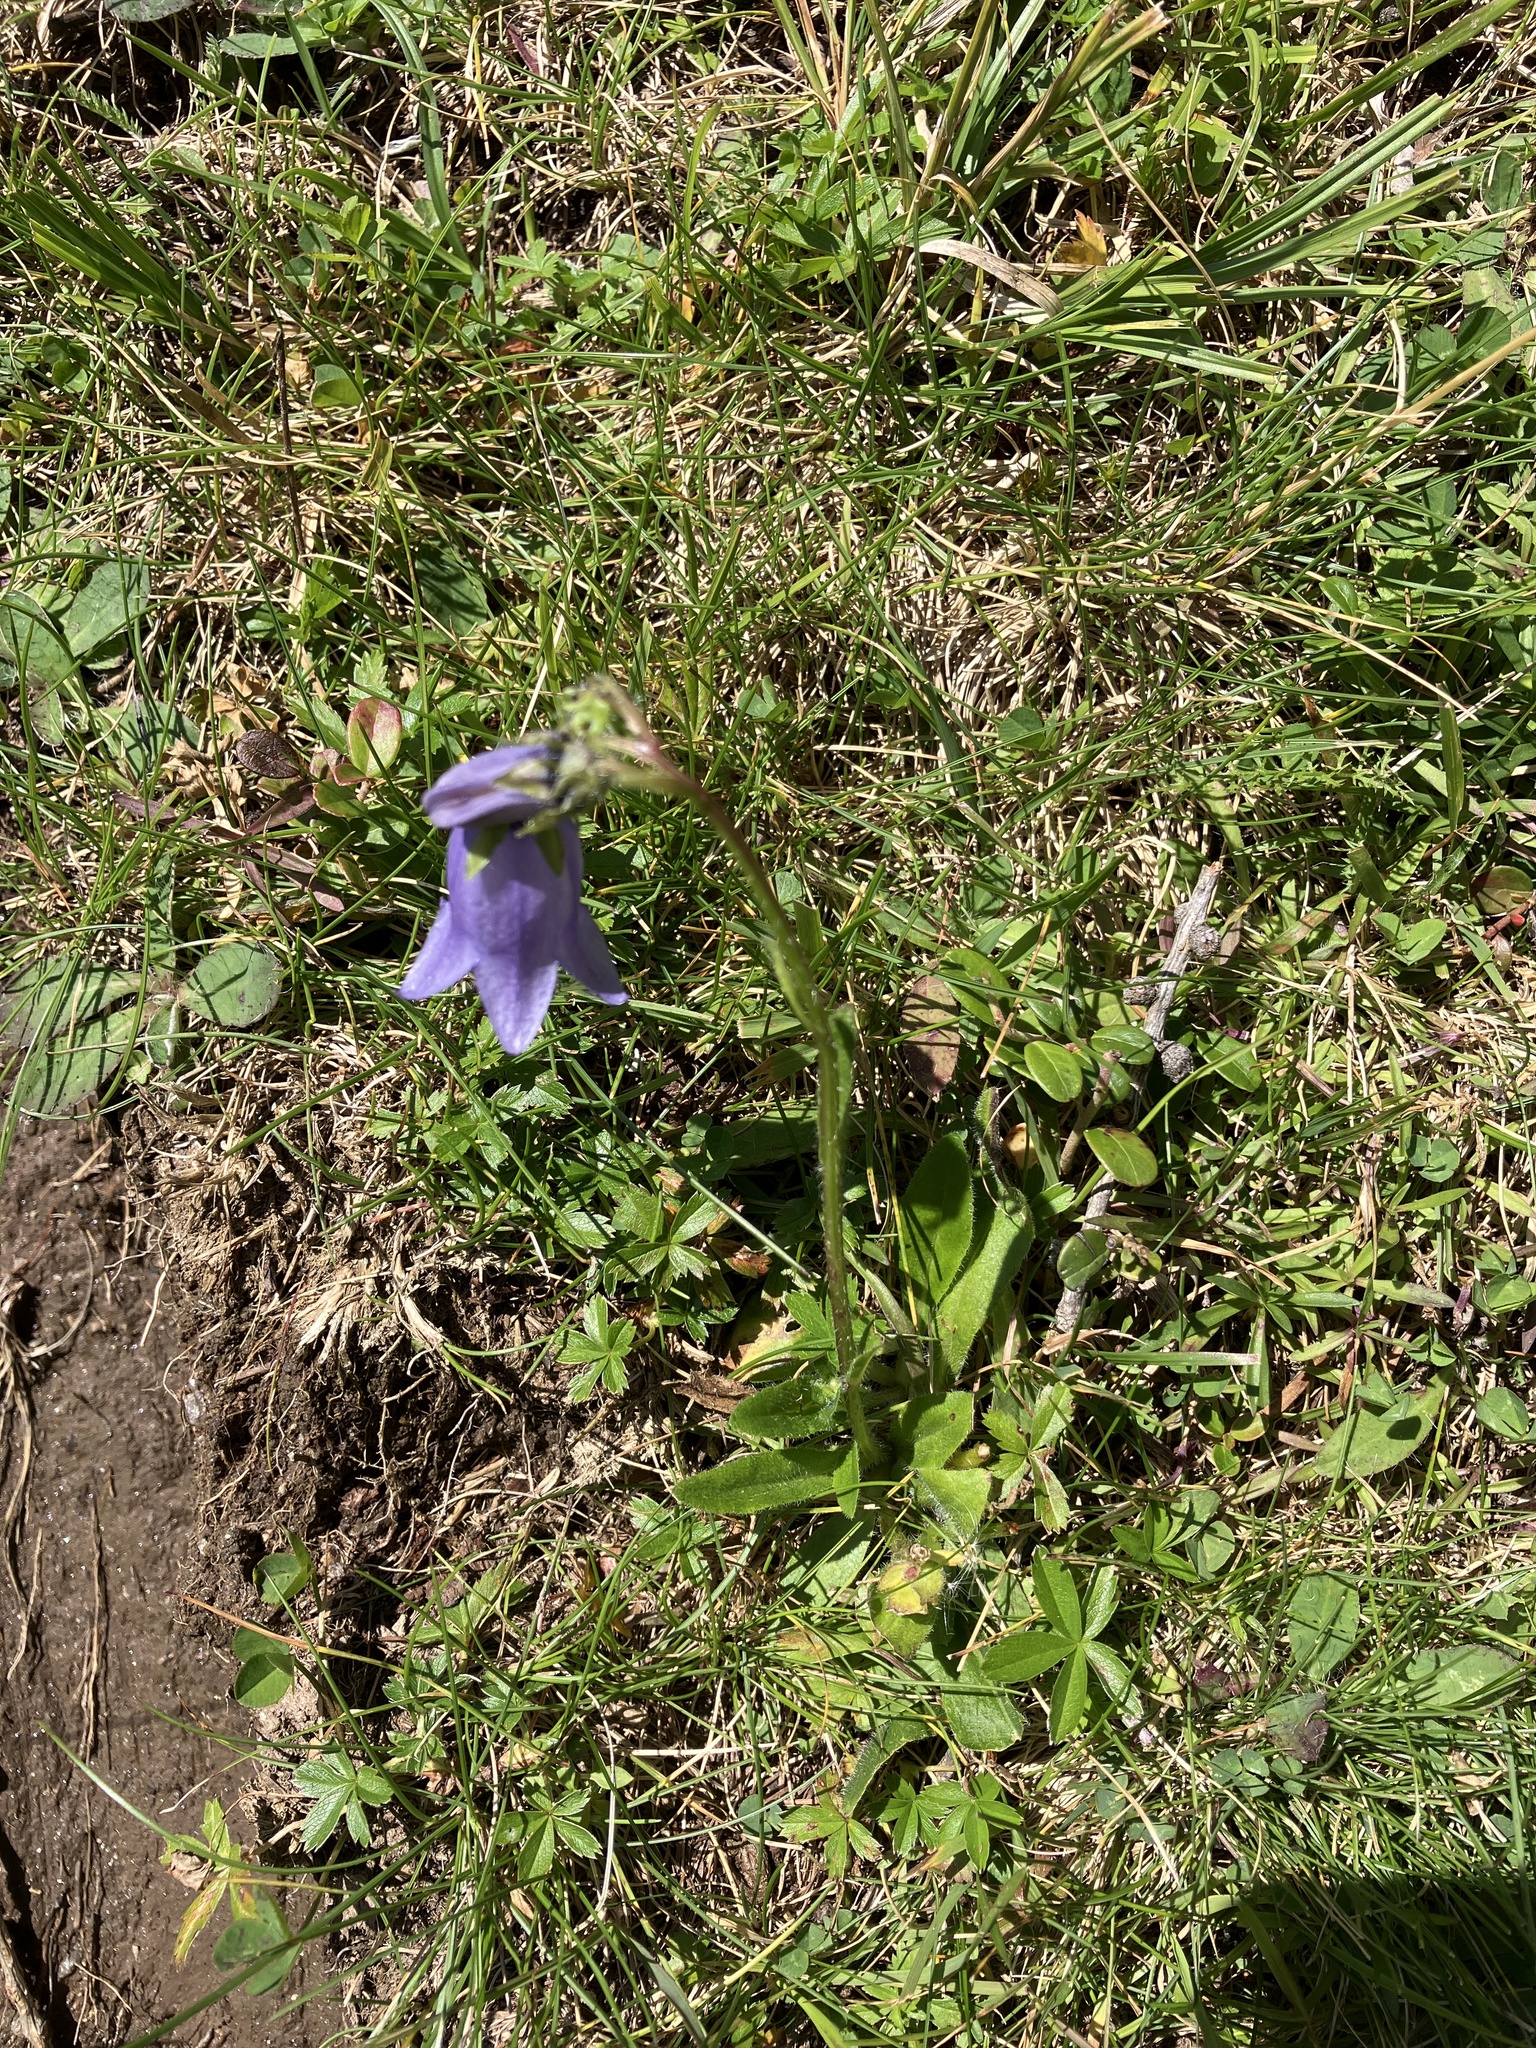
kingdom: Plantae
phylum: Tracheophyta
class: Magnoliopsida
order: Asterales
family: Campanulaceae
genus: Campanula
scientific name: Campanula barbata
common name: Bearded bellflower
